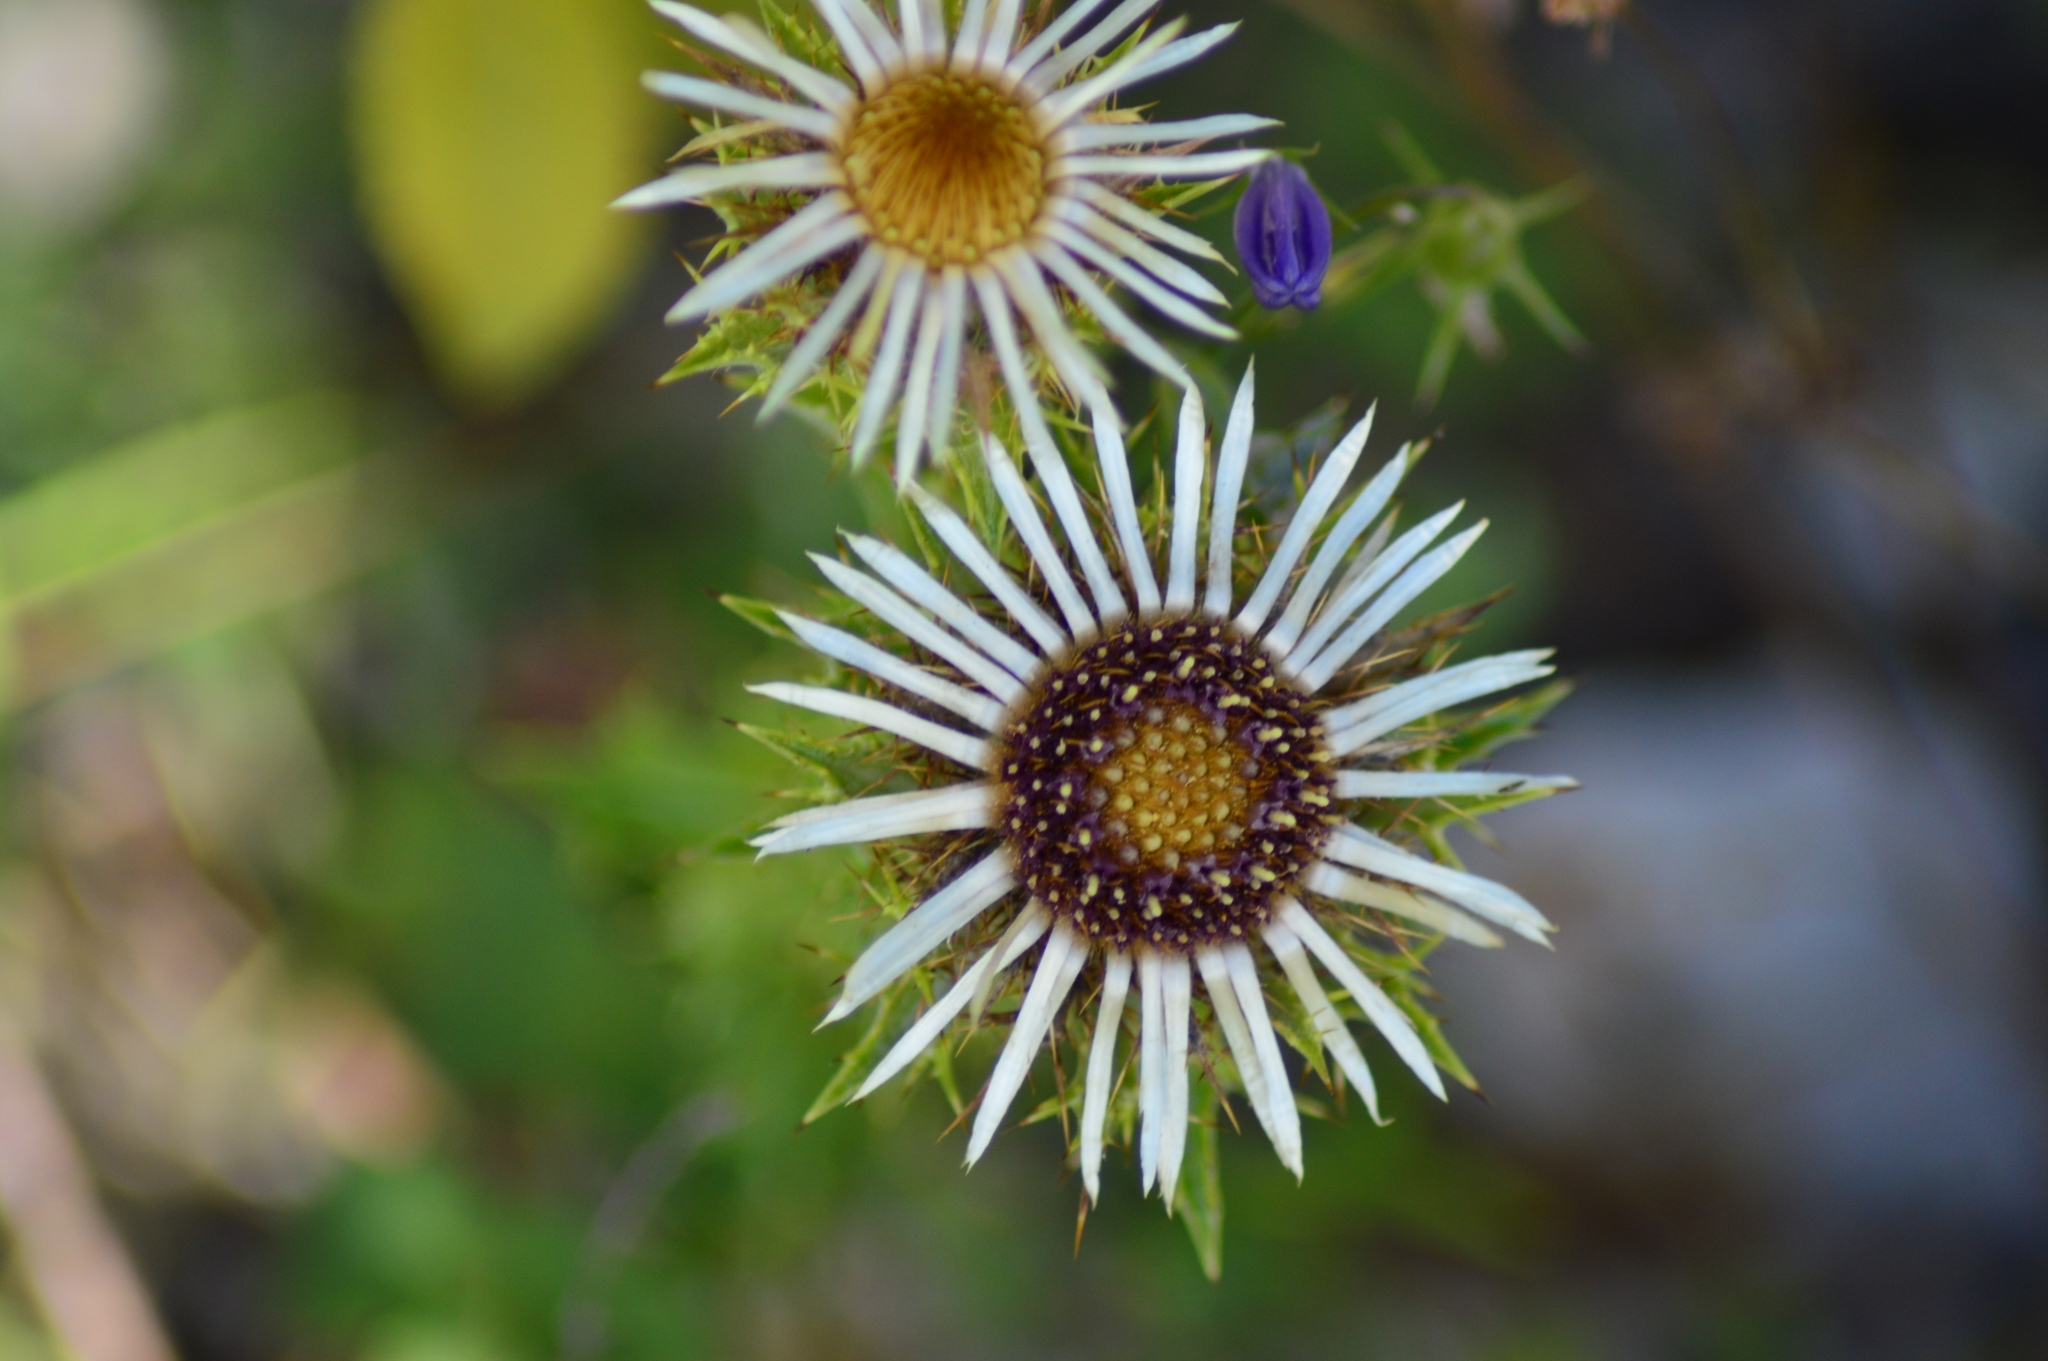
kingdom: Plantae
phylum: Tracheophyta
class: Magnoliopsida
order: Asterales
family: Asteraceae
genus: Carlina
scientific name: Carlina vulgaris
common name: Carline thistle
